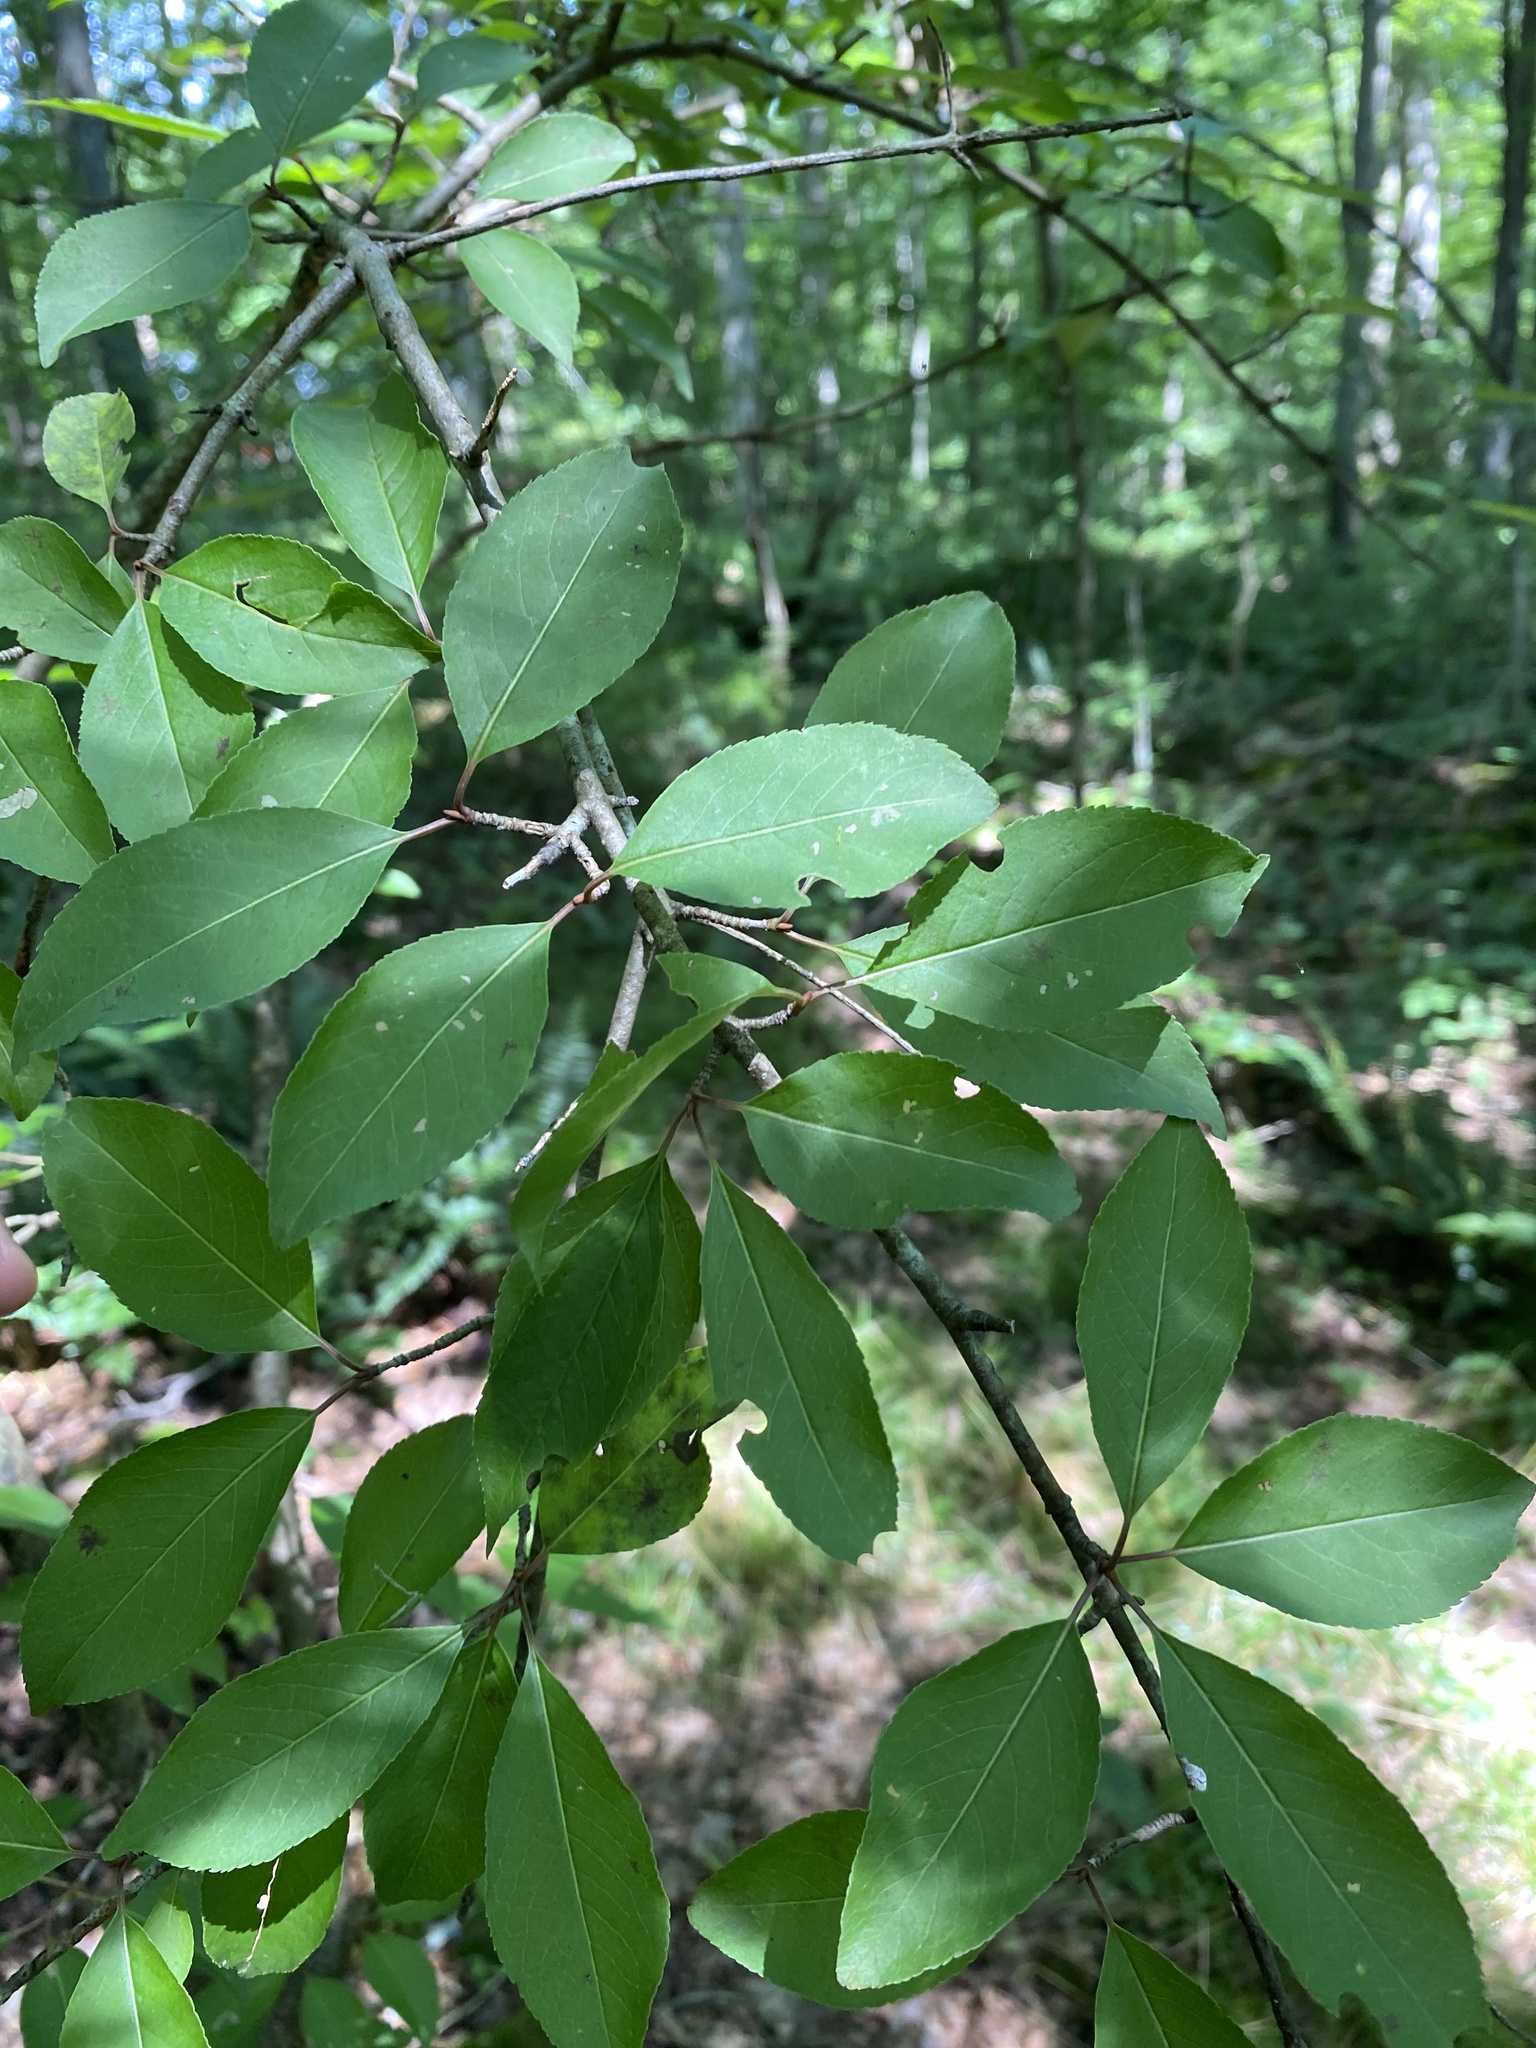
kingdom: Plantae
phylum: Tracheophyta
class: Magnoliopsida
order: Dipsacales
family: Viburnaceae
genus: Viburnum
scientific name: Viburnum prunifolium
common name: Black haw
